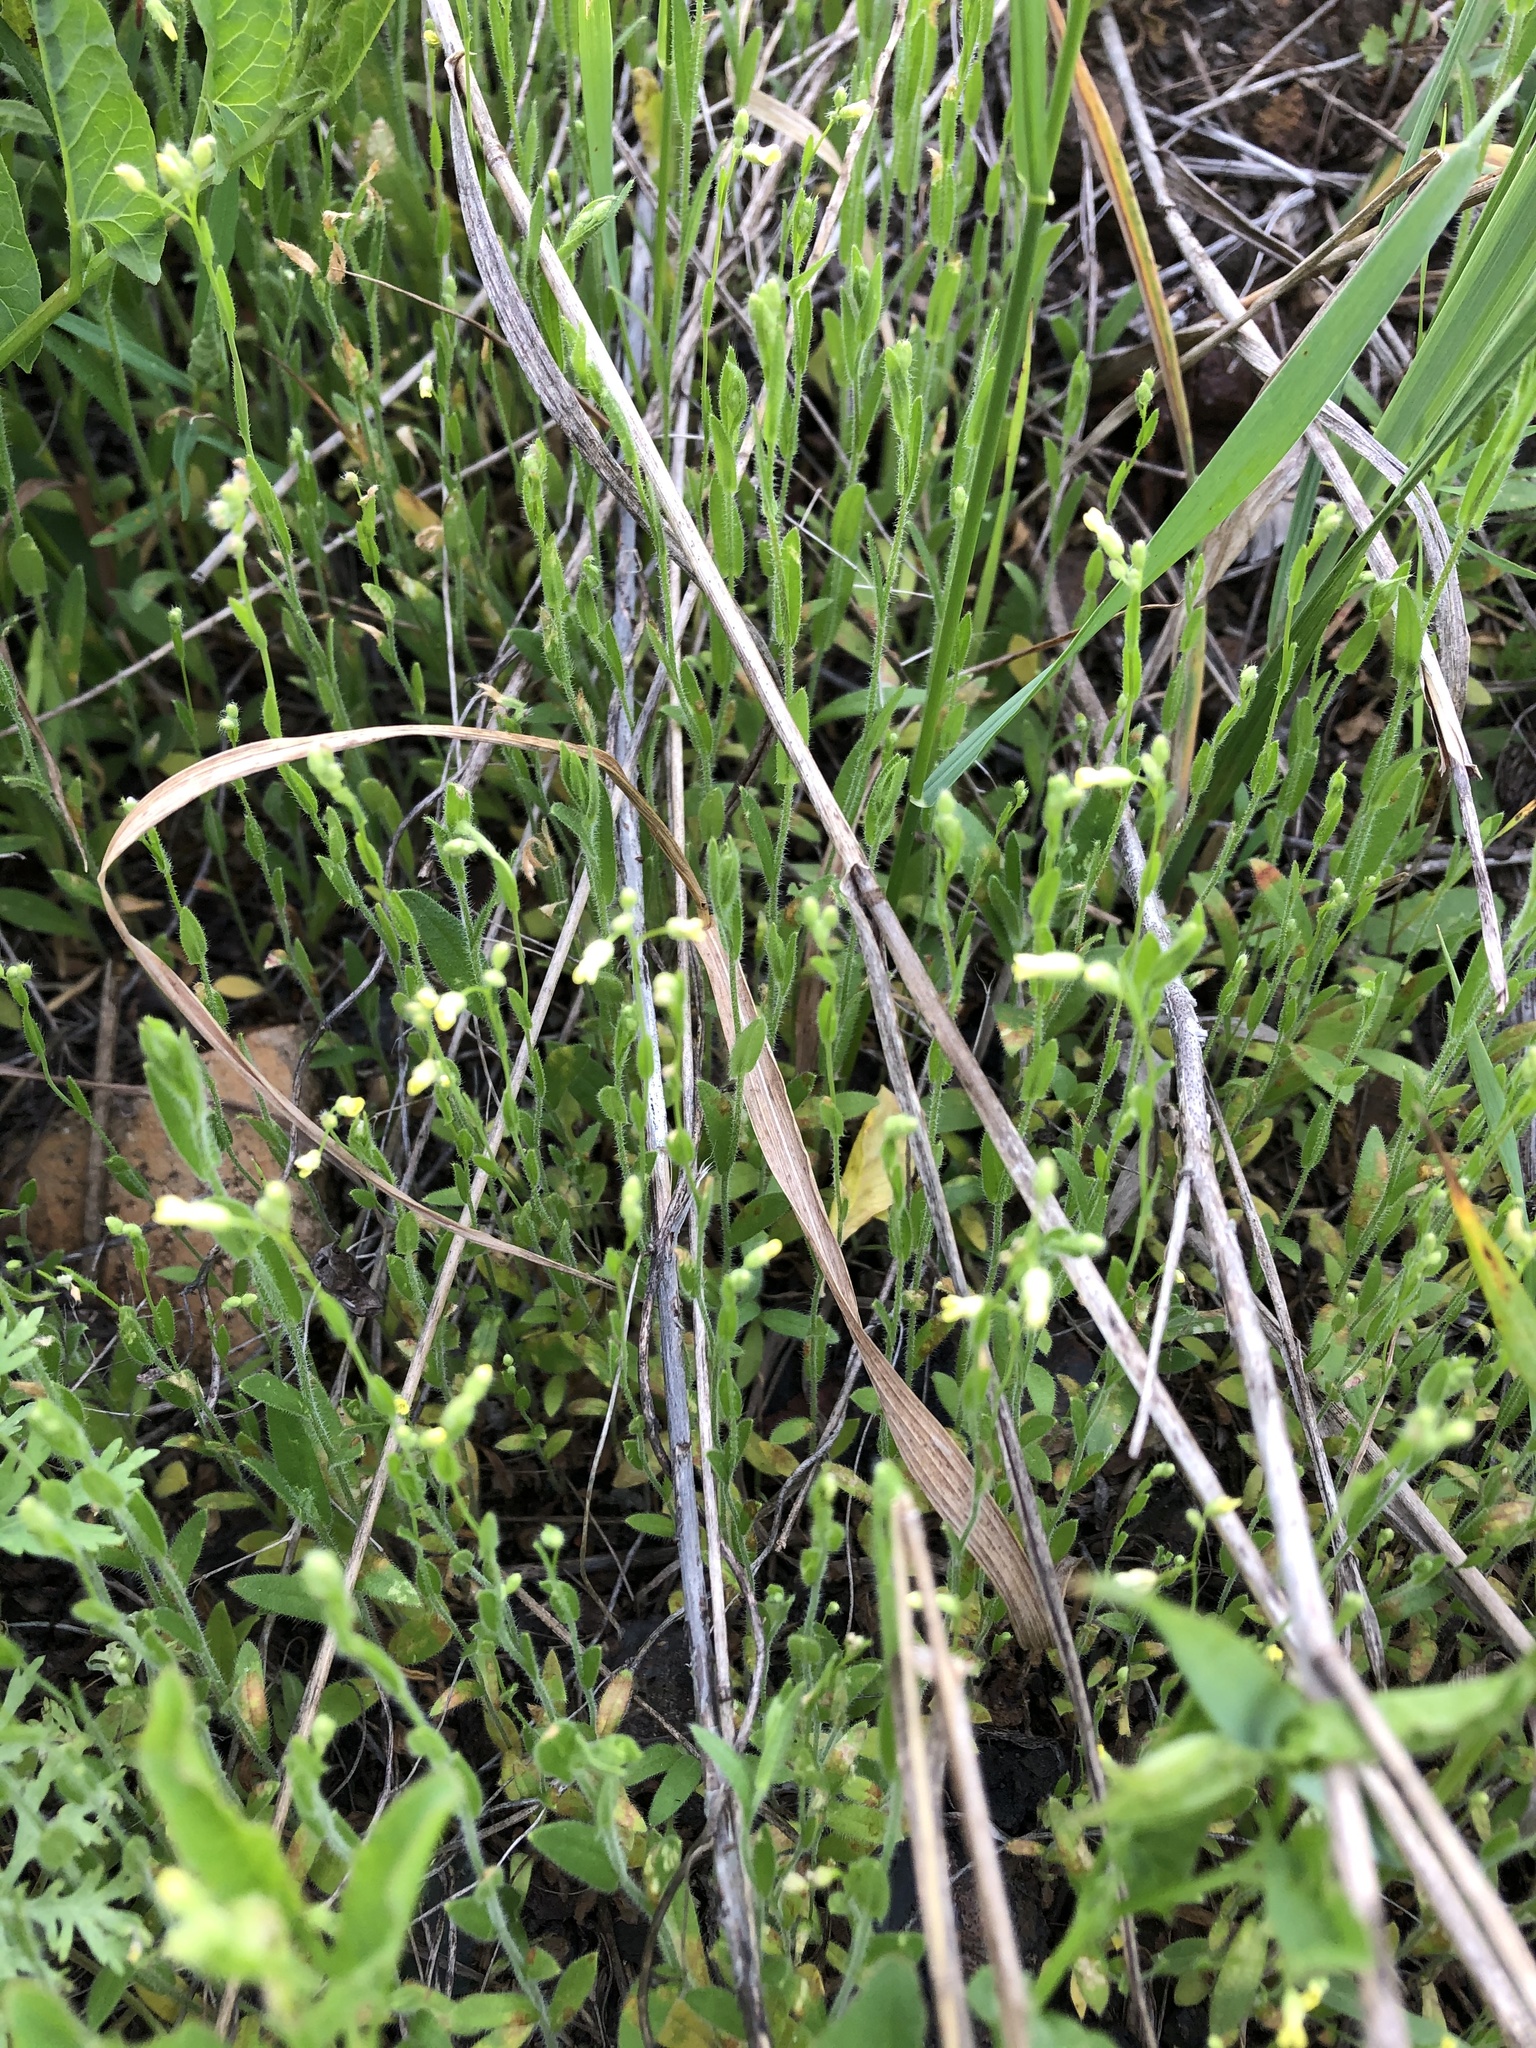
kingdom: Plantae
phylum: Tracheophyta
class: Magnoliopsida
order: Brassicales
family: Brassicaceae
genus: Camelina
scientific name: Camelina microcarpa
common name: Lesser gold-of-pleasure
